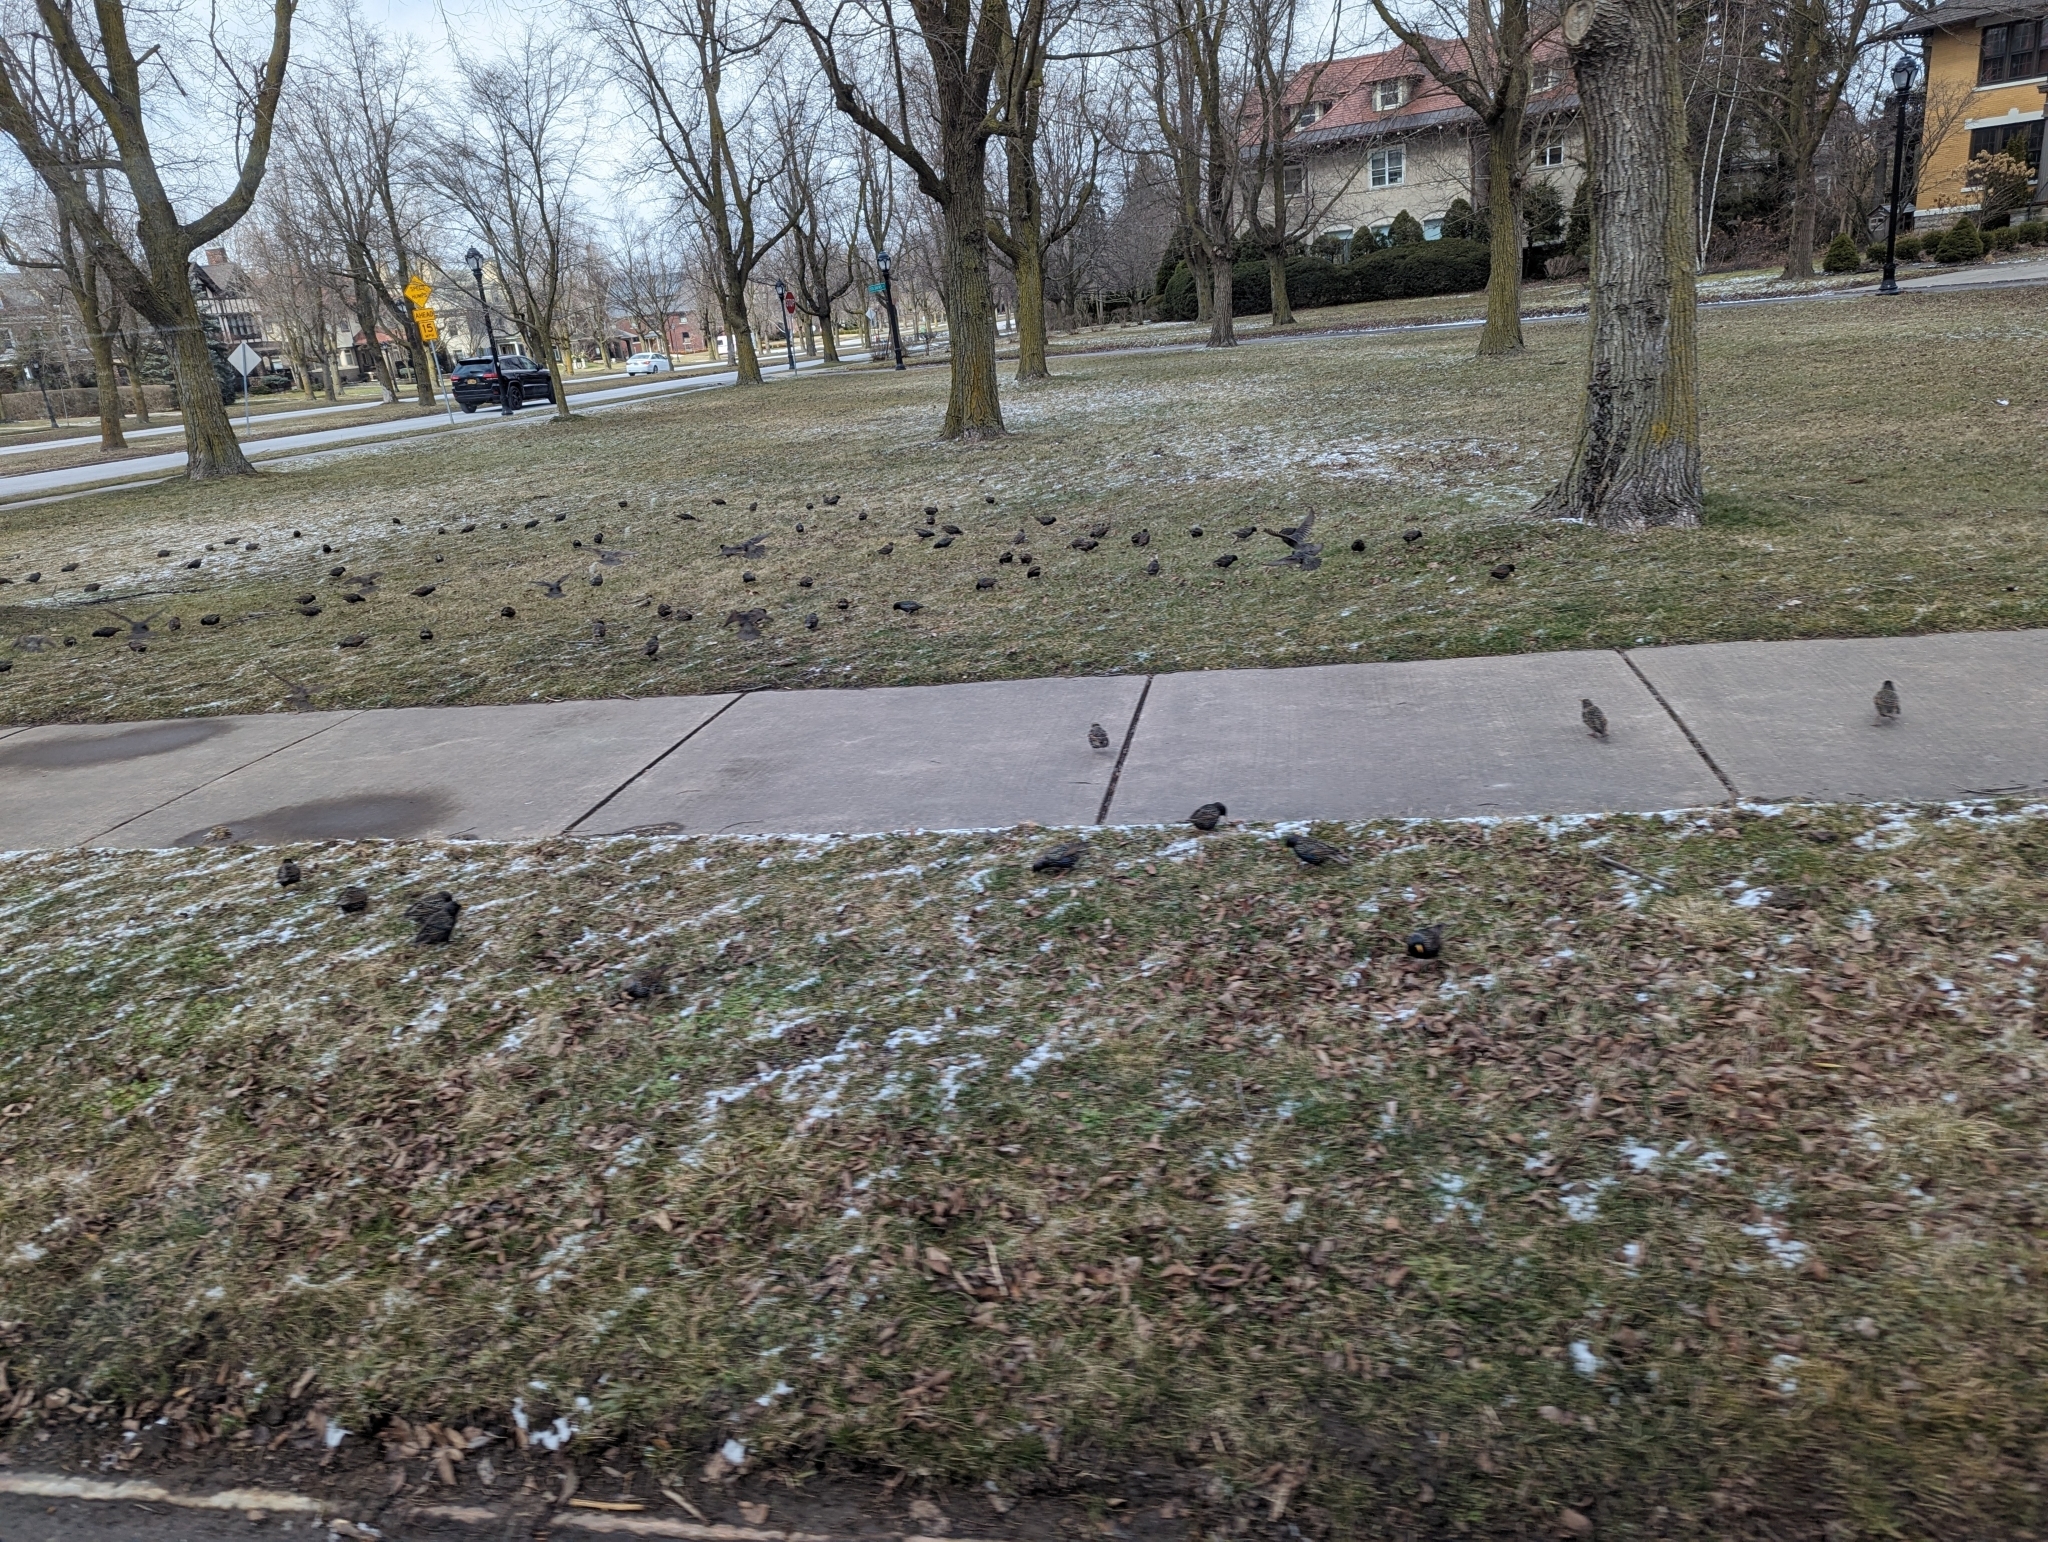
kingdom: Animalia
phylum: Chordata
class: Aves
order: Passeriformes
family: Sturnidae
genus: Sturnus
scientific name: Sturnus vulgaris
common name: Common starling
